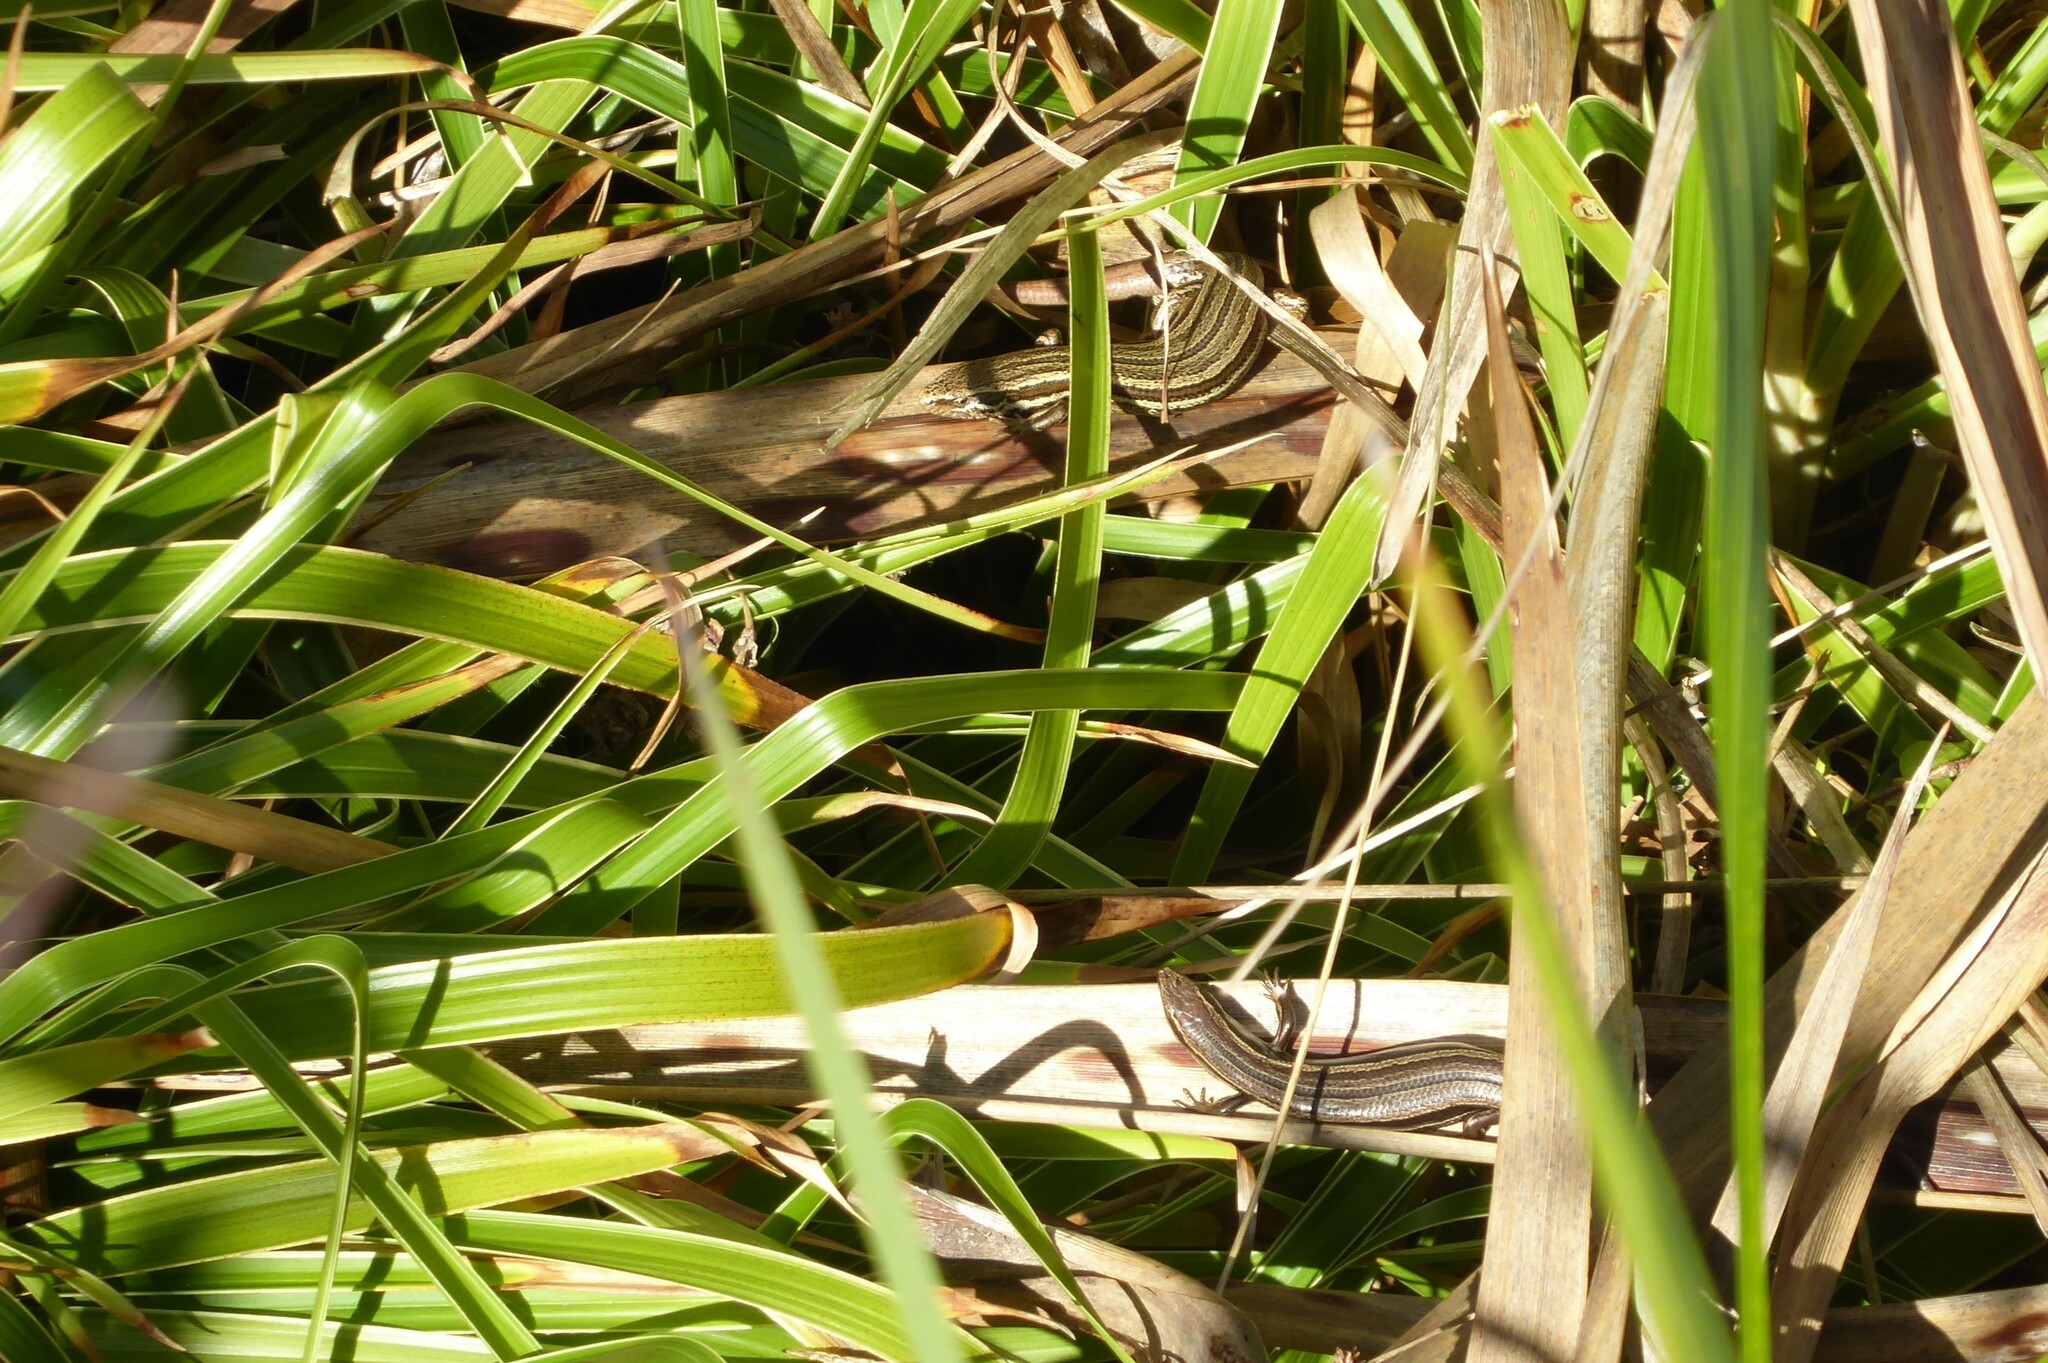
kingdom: Animalia
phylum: Chordata
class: Squamata
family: Scincidae
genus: Oligosoma
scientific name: Oligosoma polychroma
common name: Common new zealand skink
